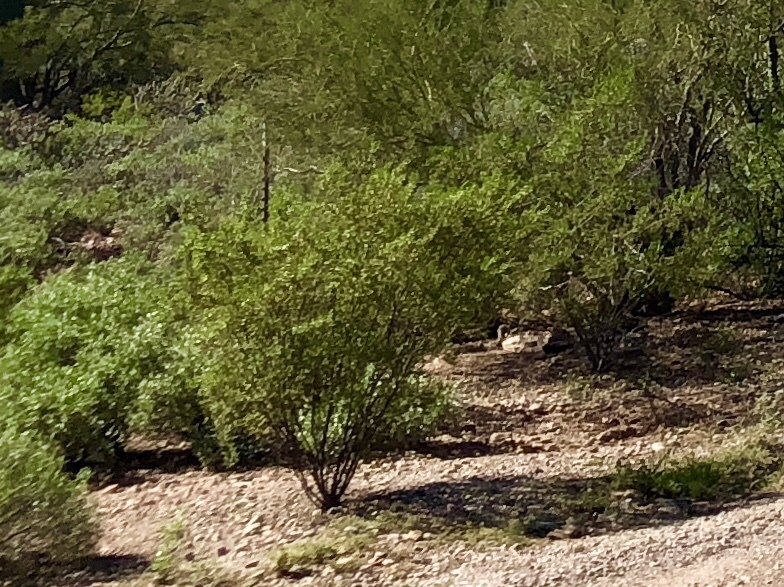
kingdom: Plantae
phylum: Tracheophyta
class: Magnoliopsida
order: Zygophyllales
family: Zygophyllaceae
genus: Larrea
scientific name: Larrea tridentata
